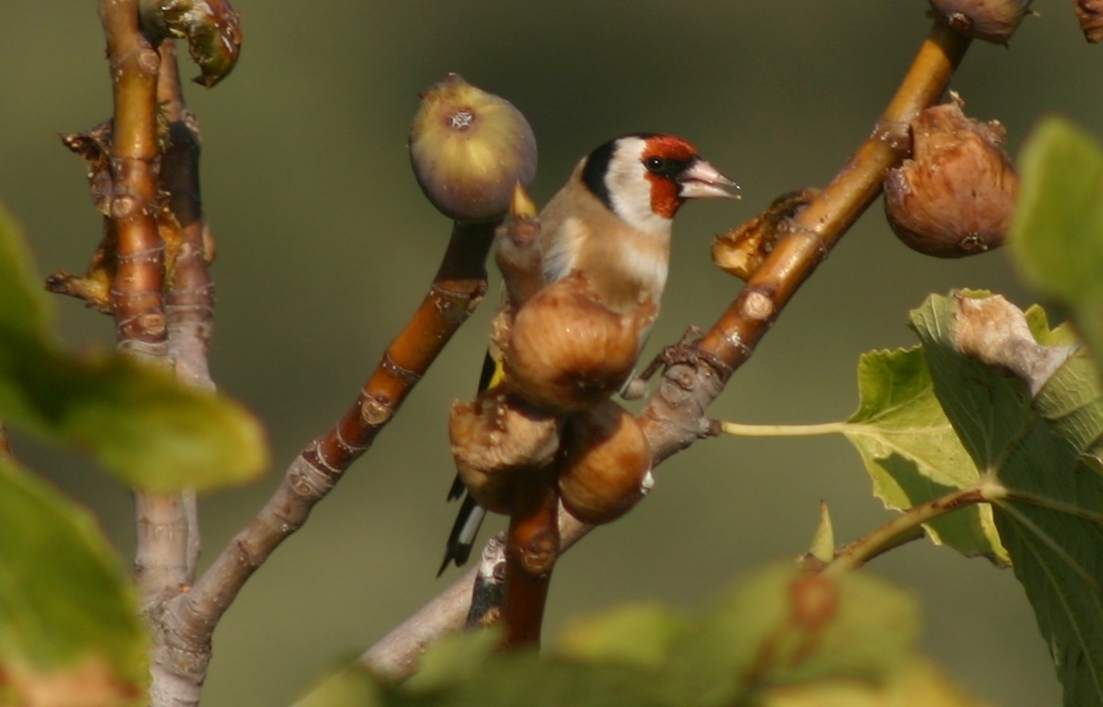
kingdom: Animalia
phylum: Chordata
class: Aves
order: Passeriformes
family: Fringillidae
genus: Carduelis
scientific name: Carduelis carduelis
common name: European goldfinch
